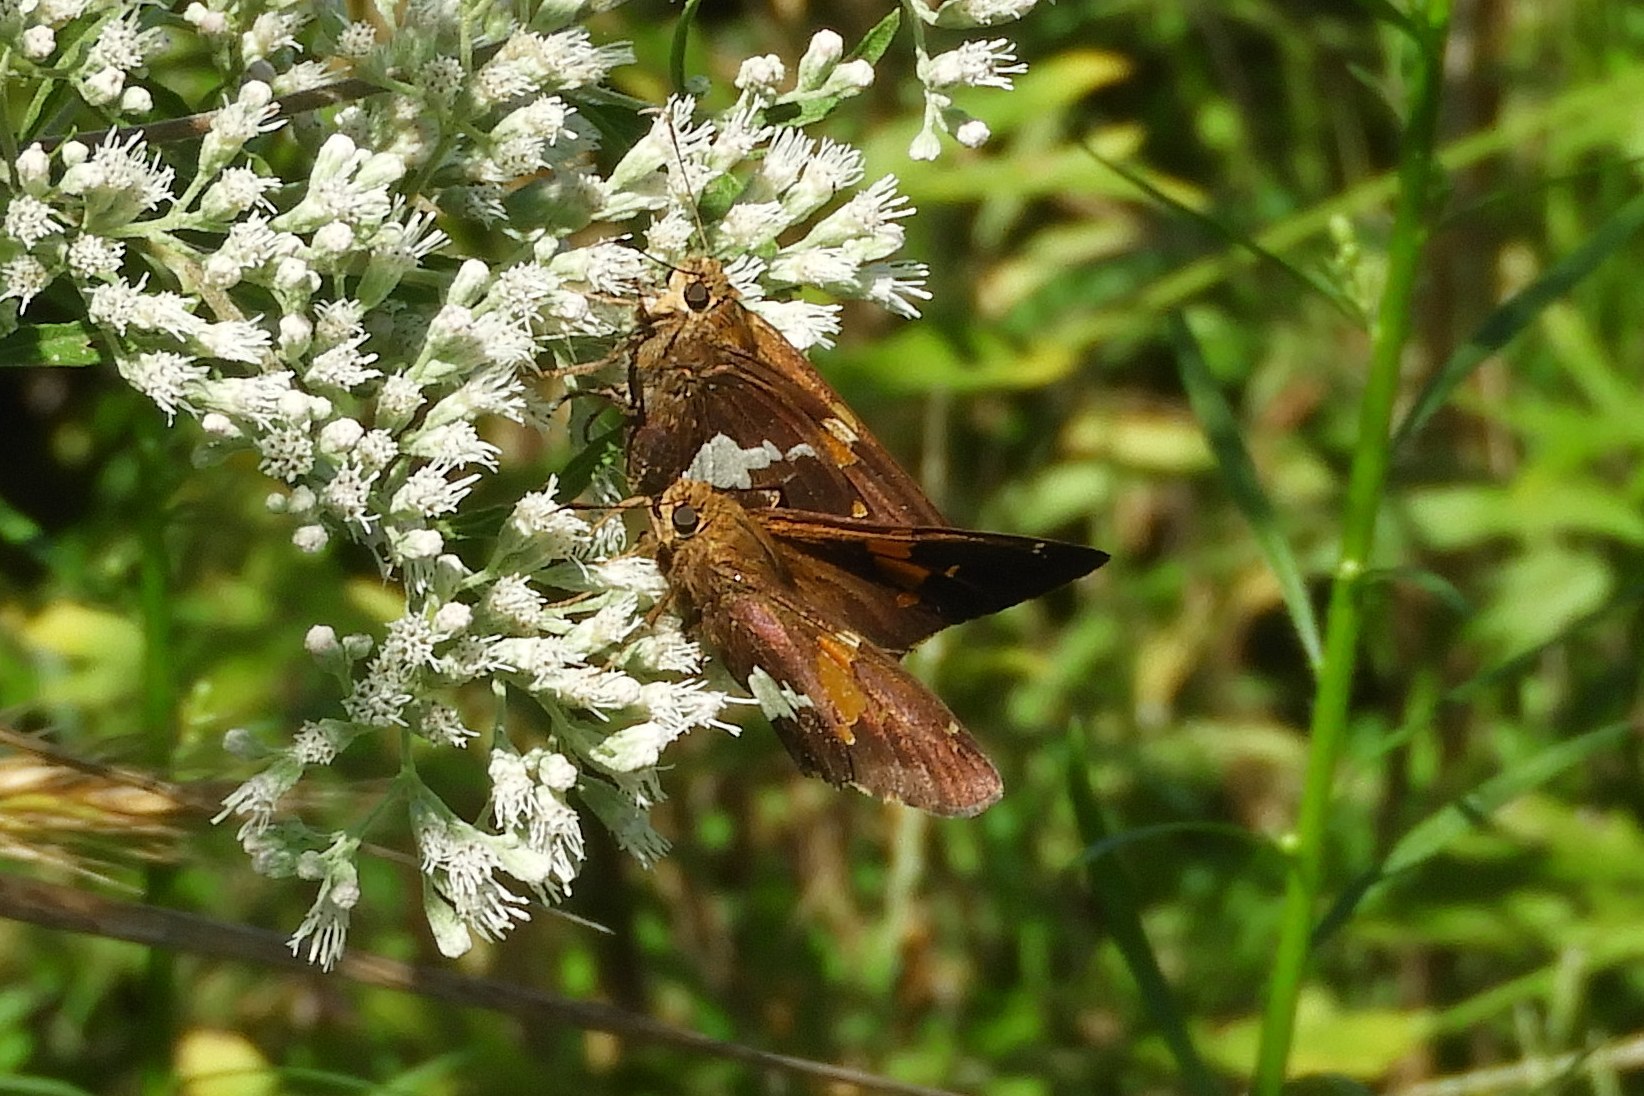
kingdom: Animalia
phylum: Arthropoda
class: Insecta
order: Lepidoptera
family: Hesperiidae
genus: Epargyreus
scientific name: Epargyreus clarus
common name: Silver-spotted skipper
